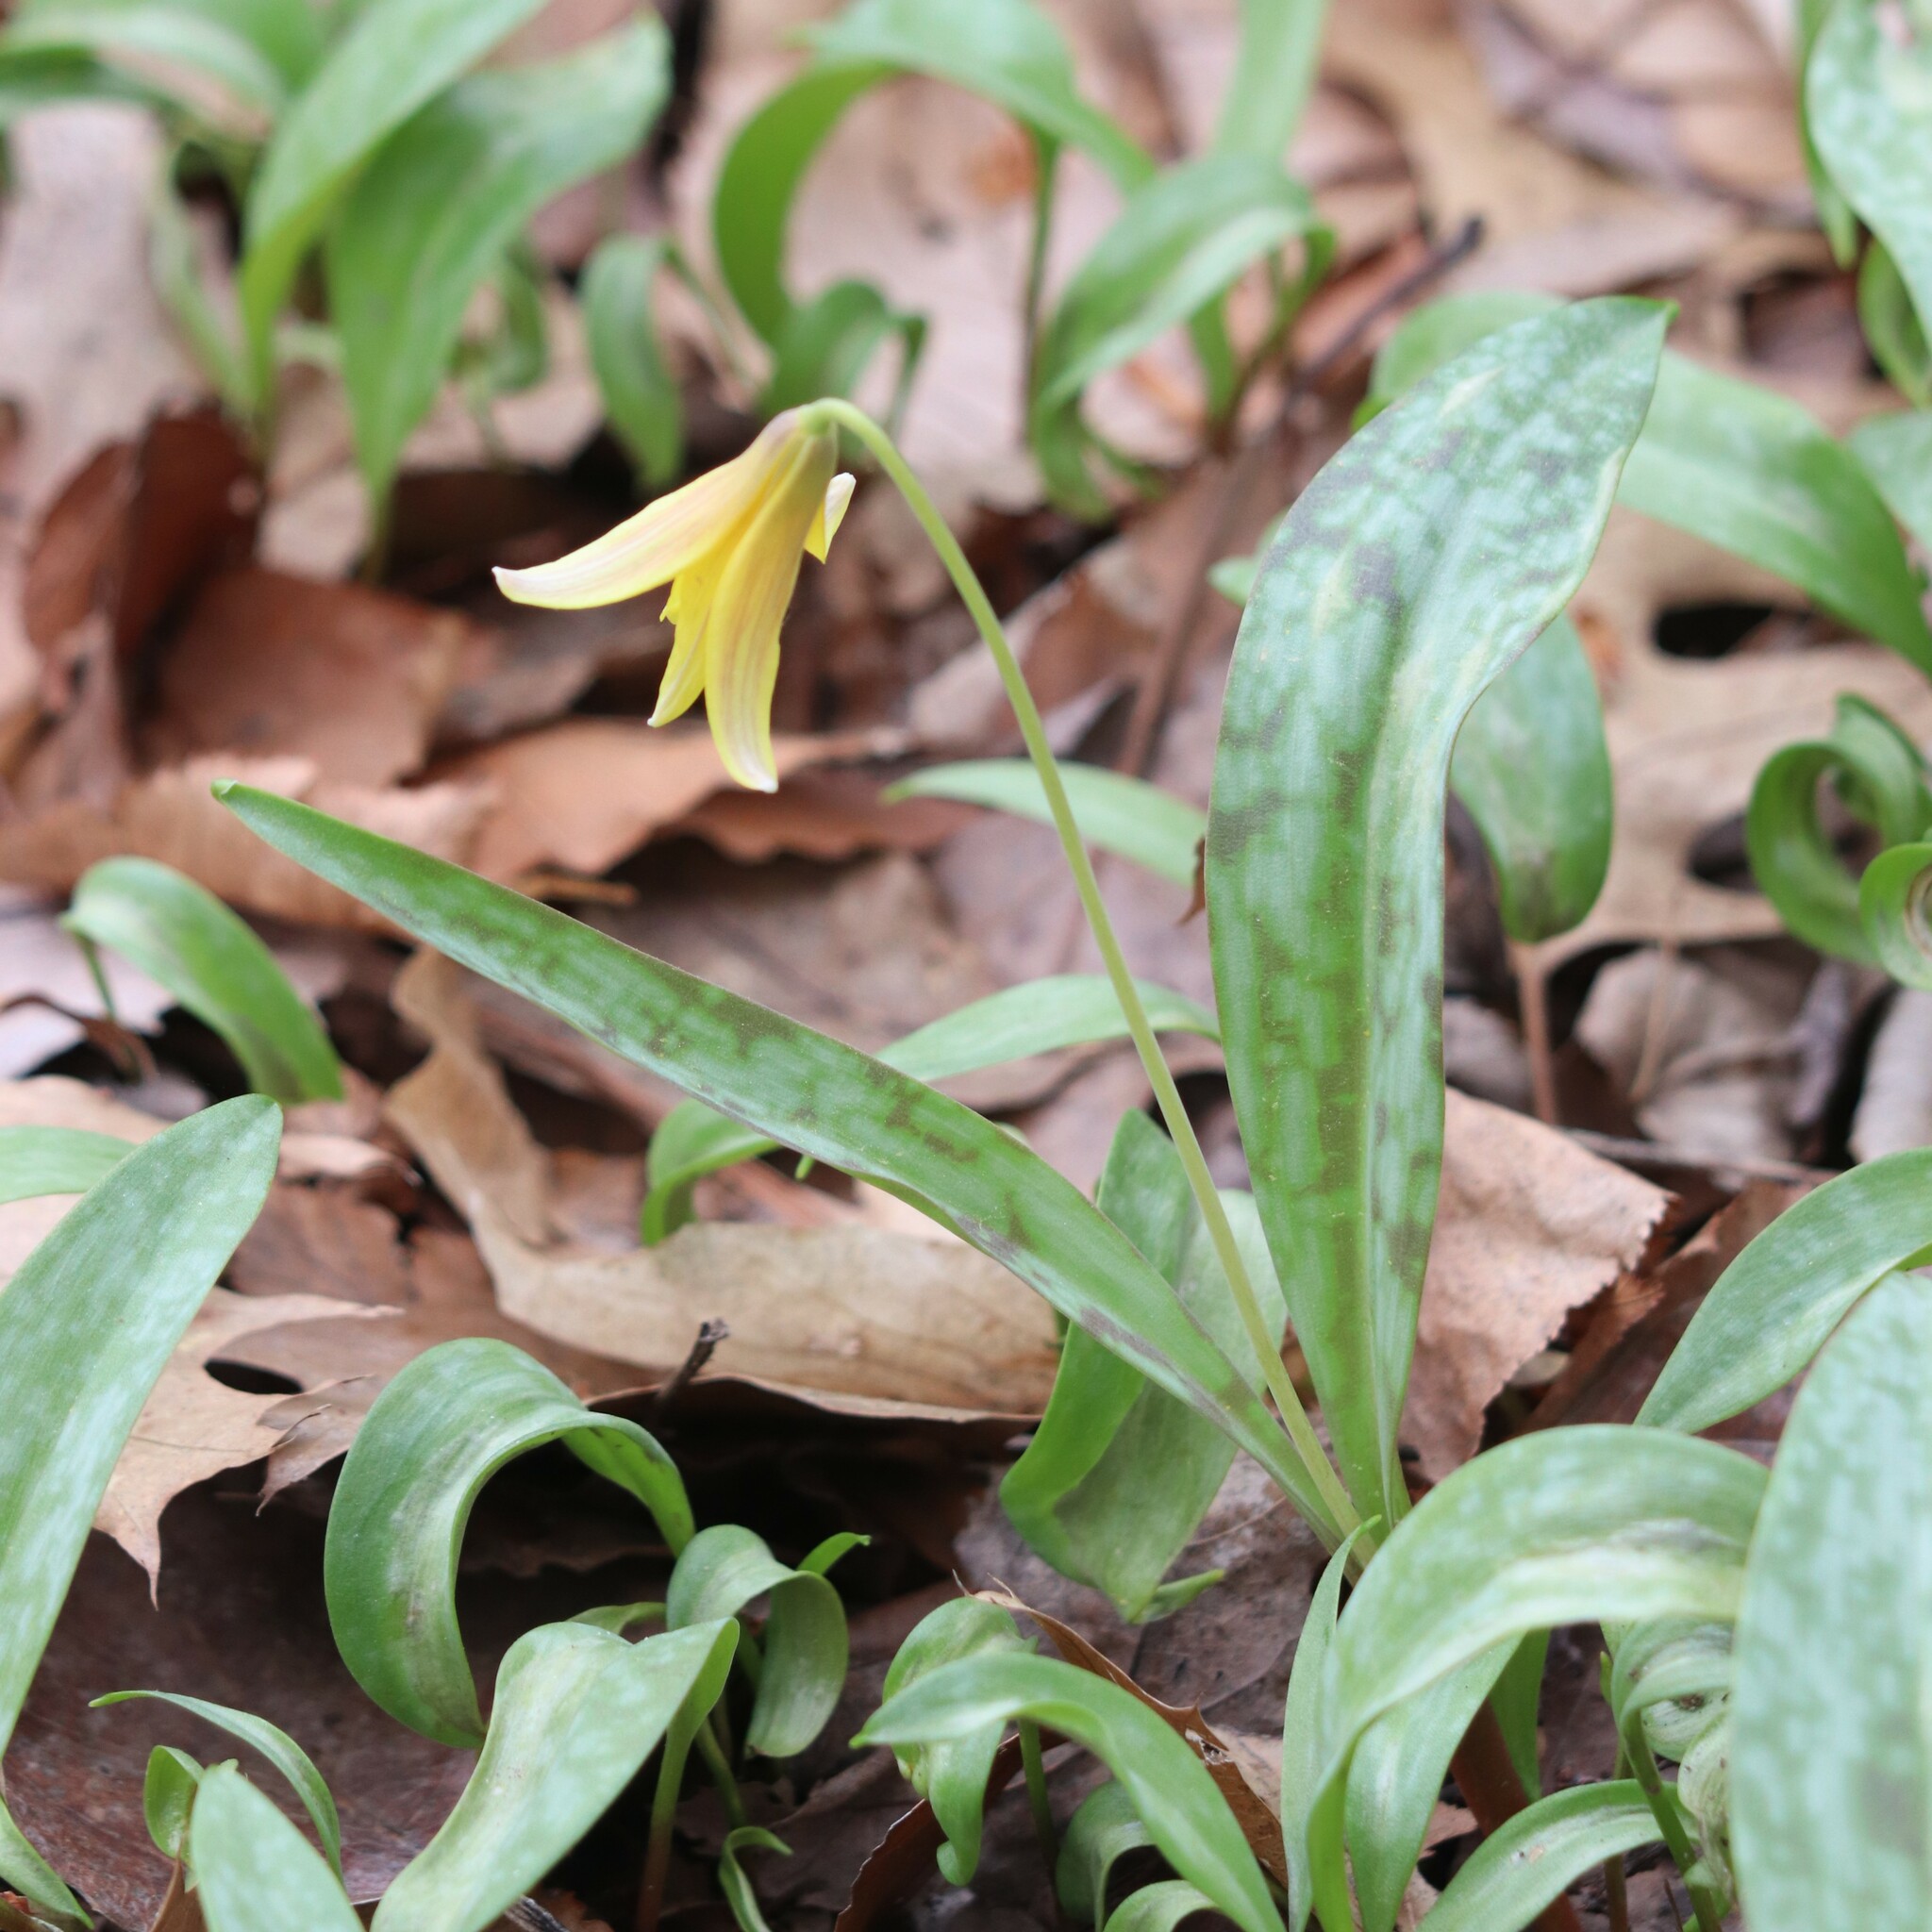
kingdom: Plantae
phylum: Tracheophyta
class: Liliopsida
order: Liliales
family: Liliaceae
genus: Erythronium
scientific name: Erythronium americanum
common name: Yellow adder's-tongue
